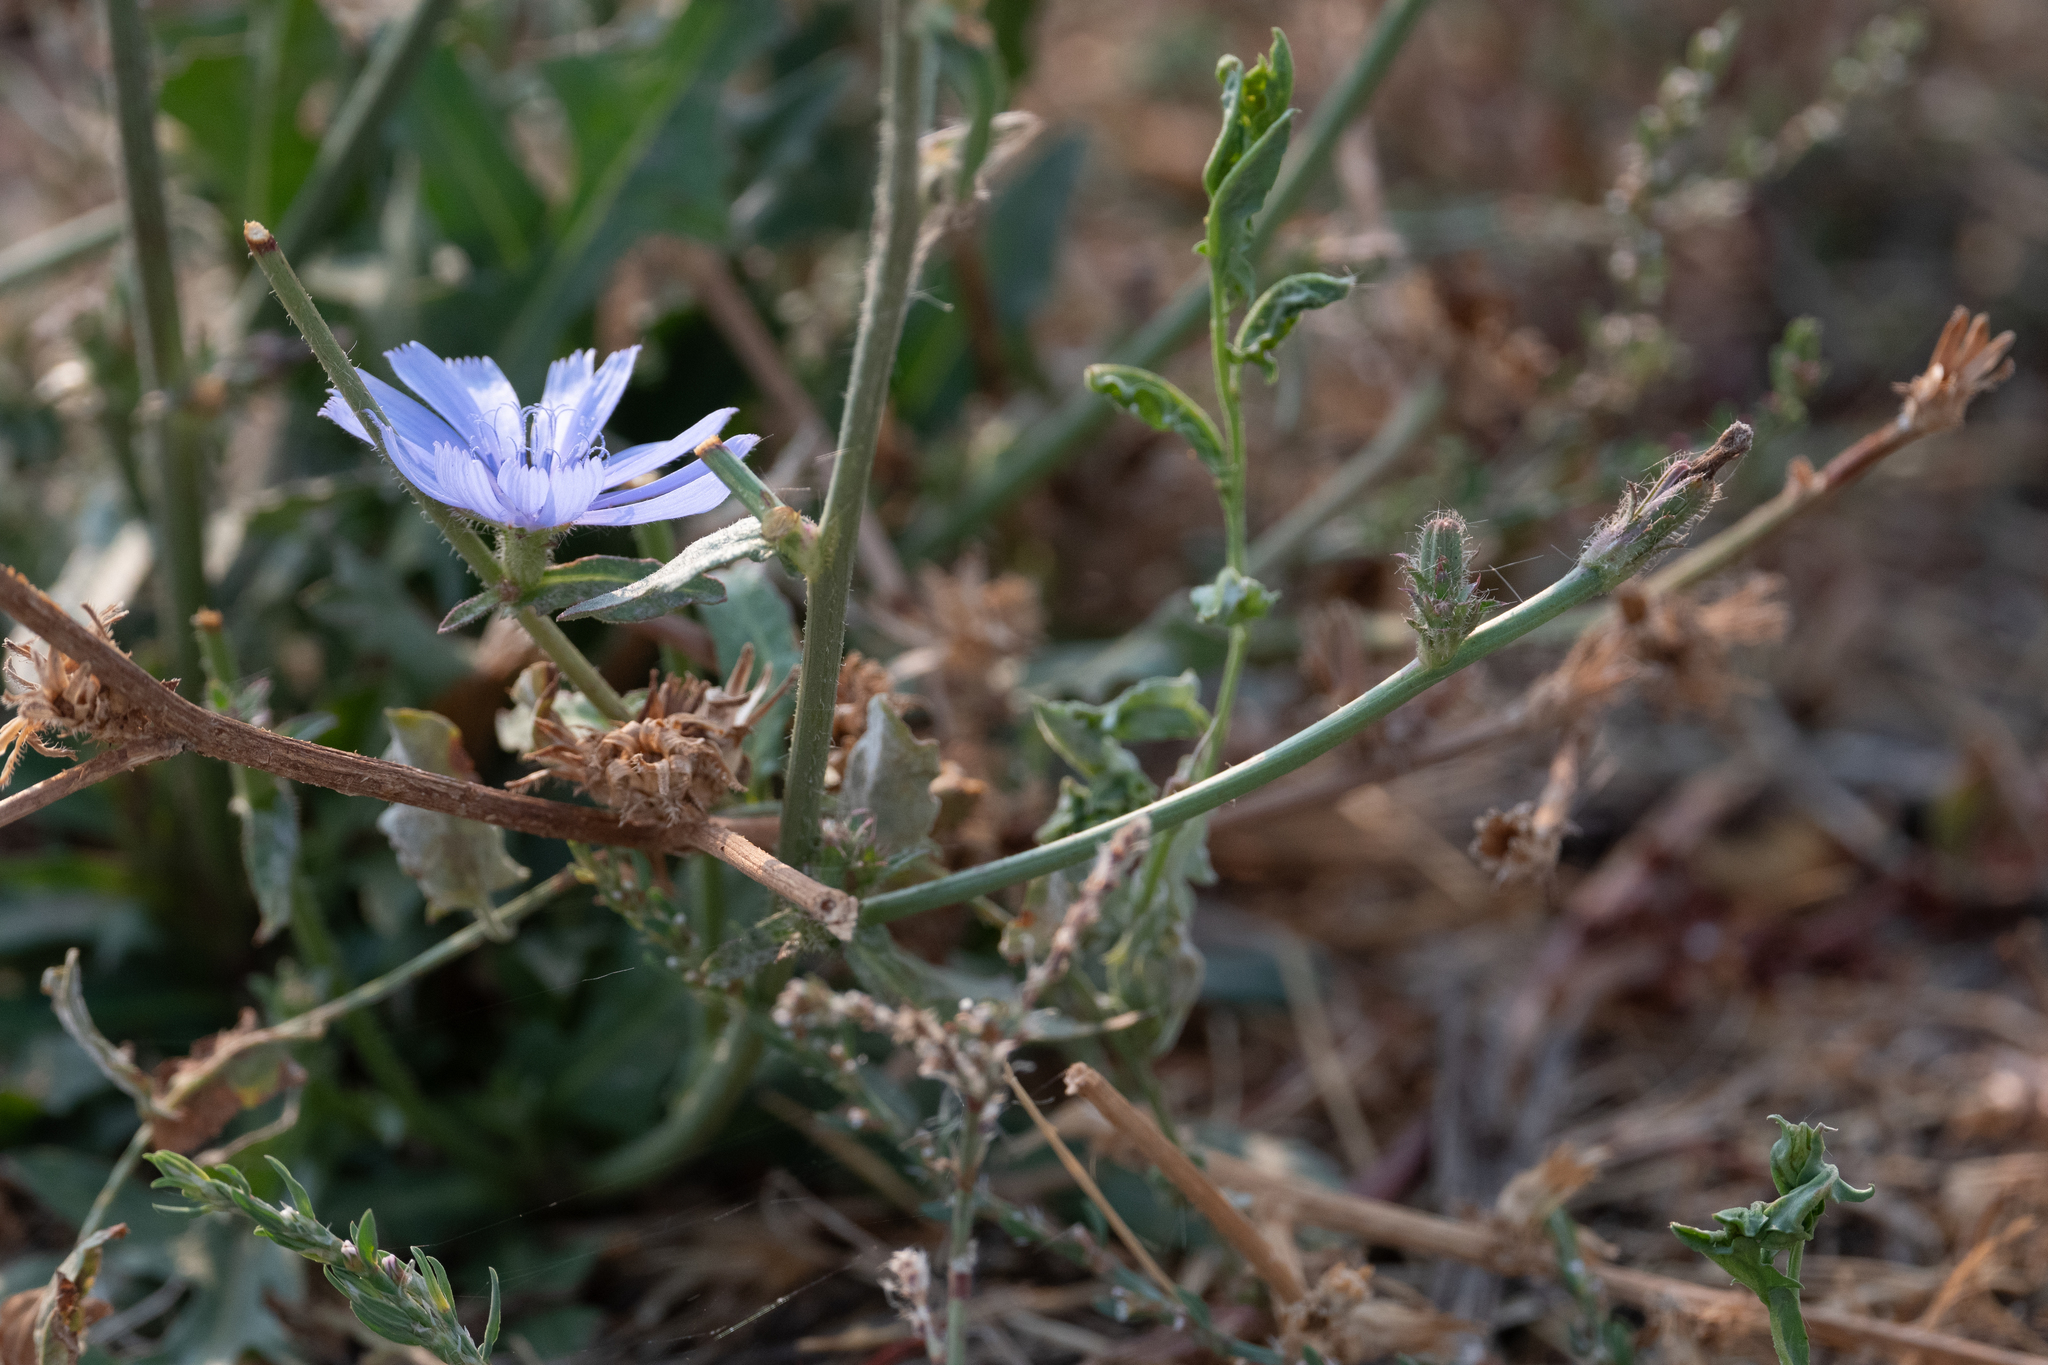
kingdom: Plantae
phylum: Tracheophyta
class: Magnoliopsida
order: Asterales
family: Asteraceae
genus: Cichorium
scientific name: Cichorium intybus
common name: Chicory
